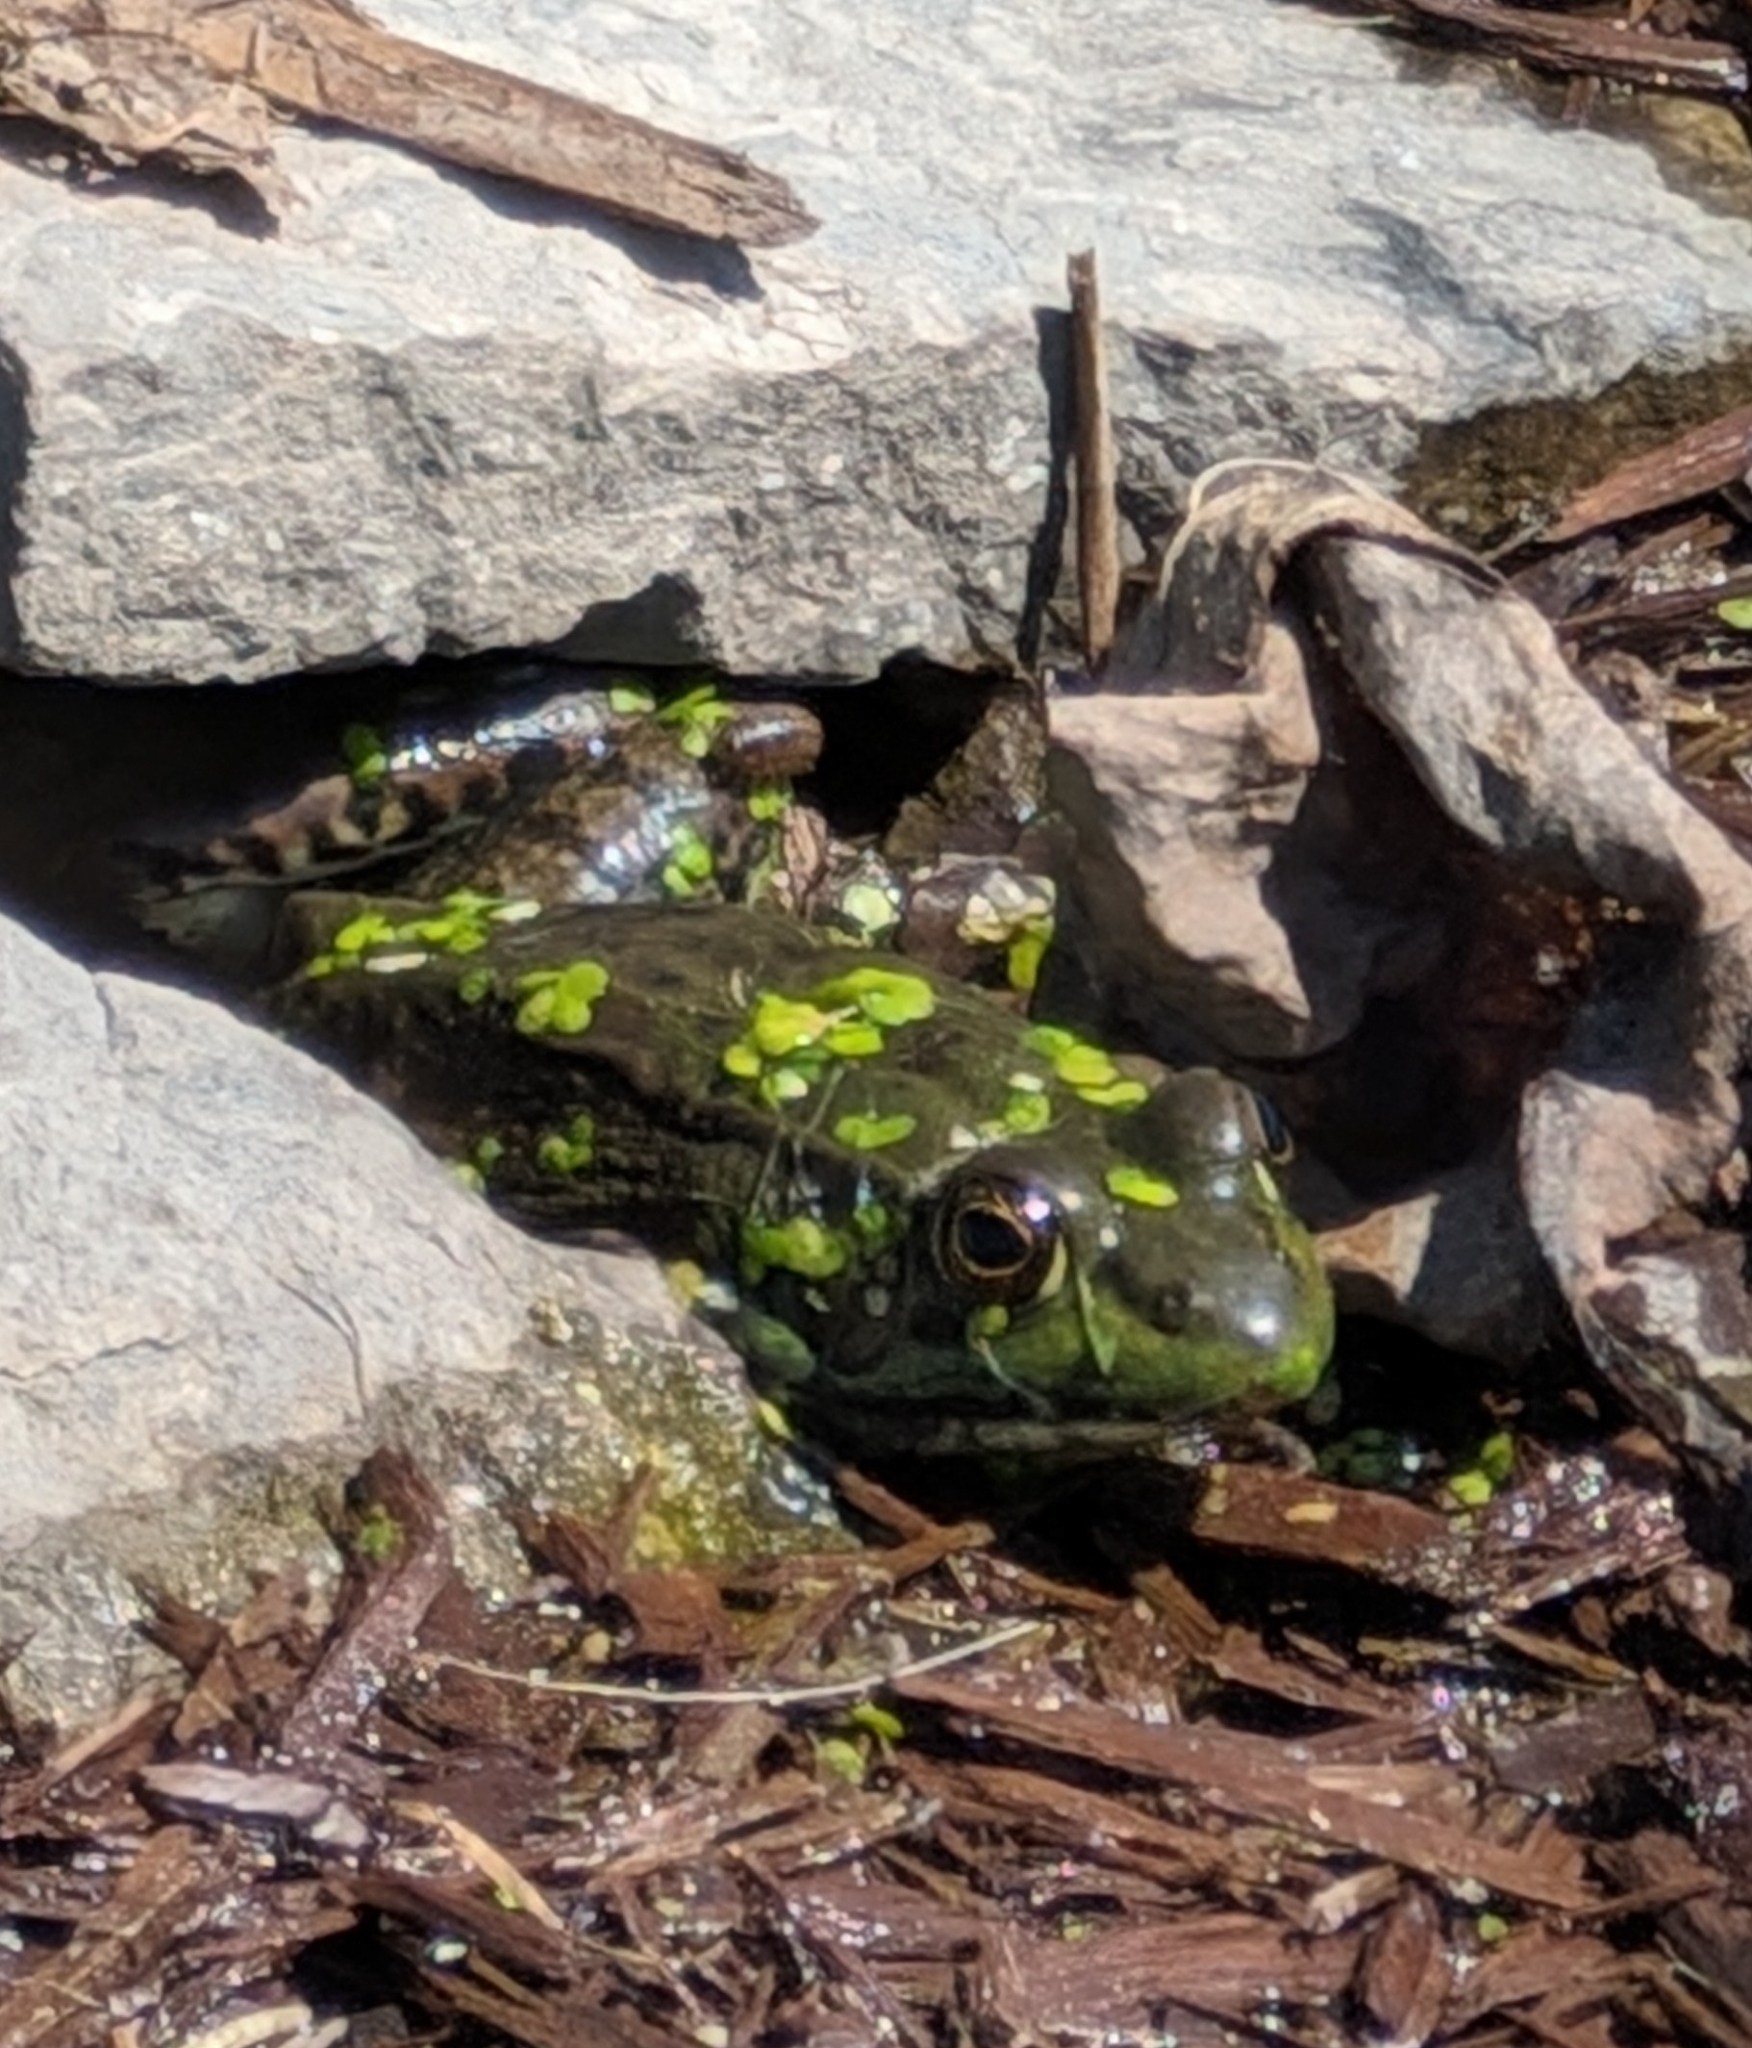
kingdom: Animalia
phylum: Chordata
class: Amphibia
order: Anura
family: Ranidae
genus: Lithobates
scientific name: Lithobates clamitans
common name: Green frog
